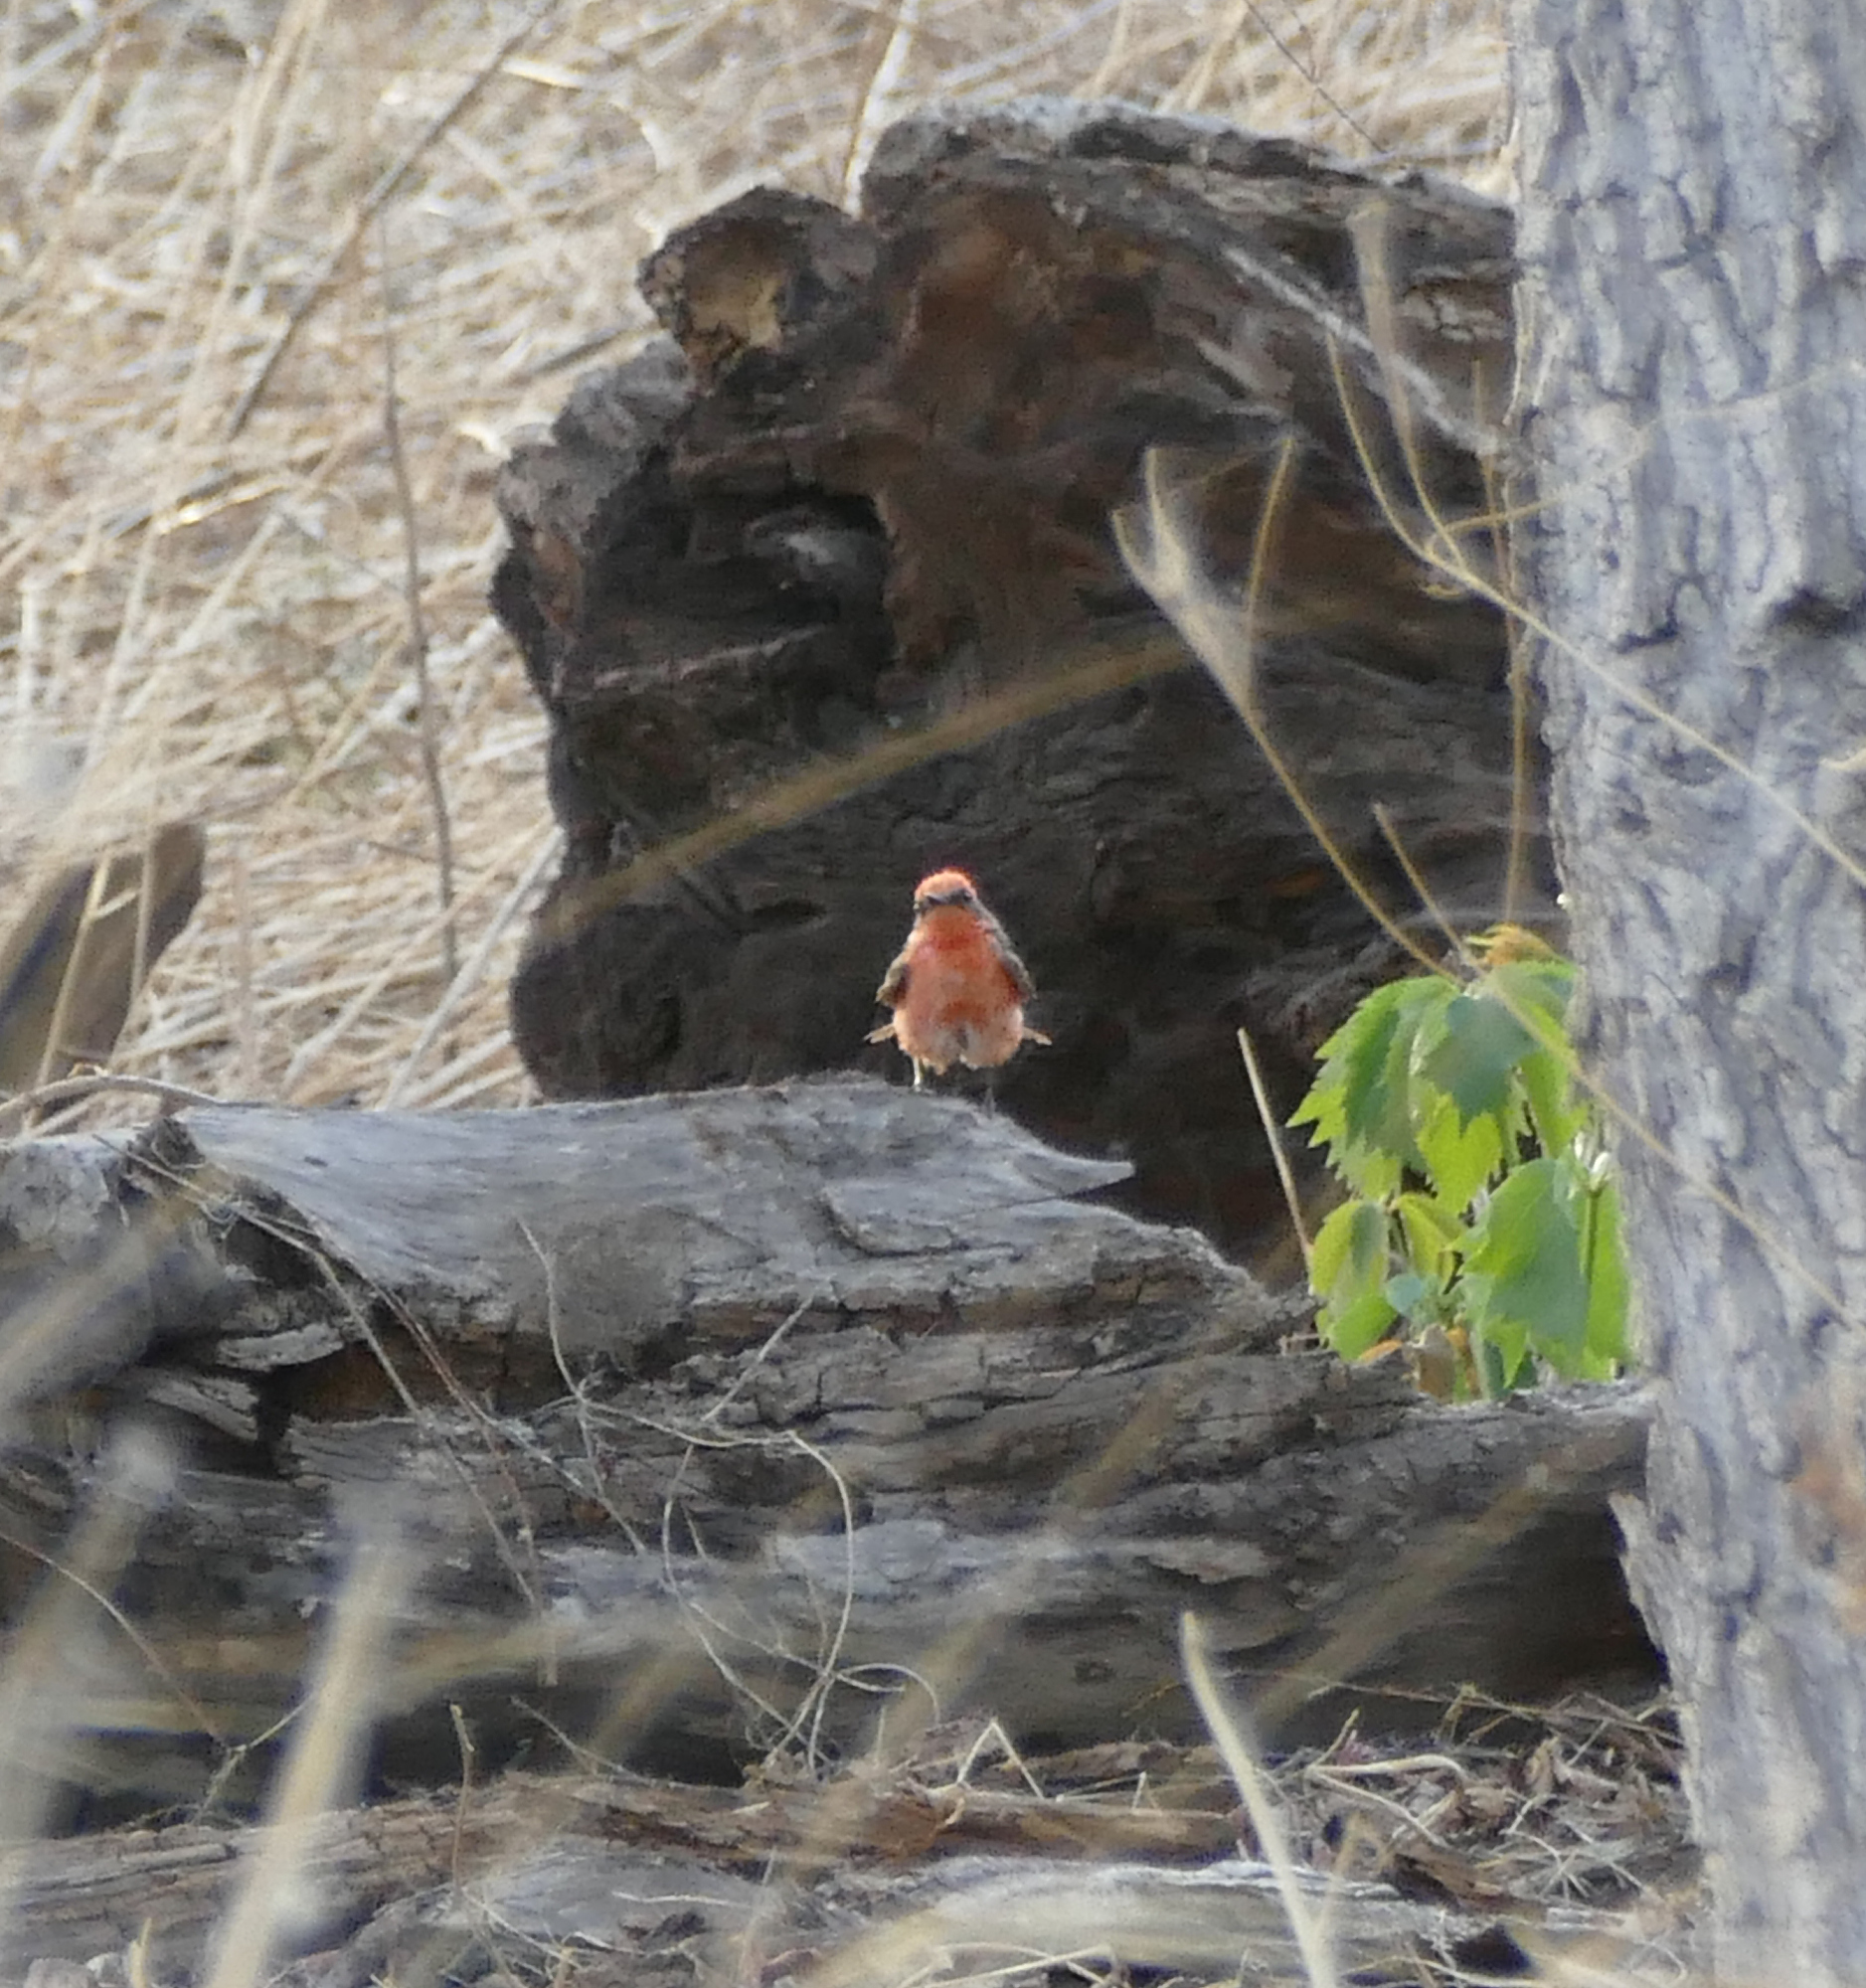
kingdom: Animalia
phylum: Chordata
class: Aves
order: Passeriformes
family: Tyrannidae
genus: Pyrocephalus
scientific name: Pyrocephalus rubinus
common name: Vermilion flycatcher
